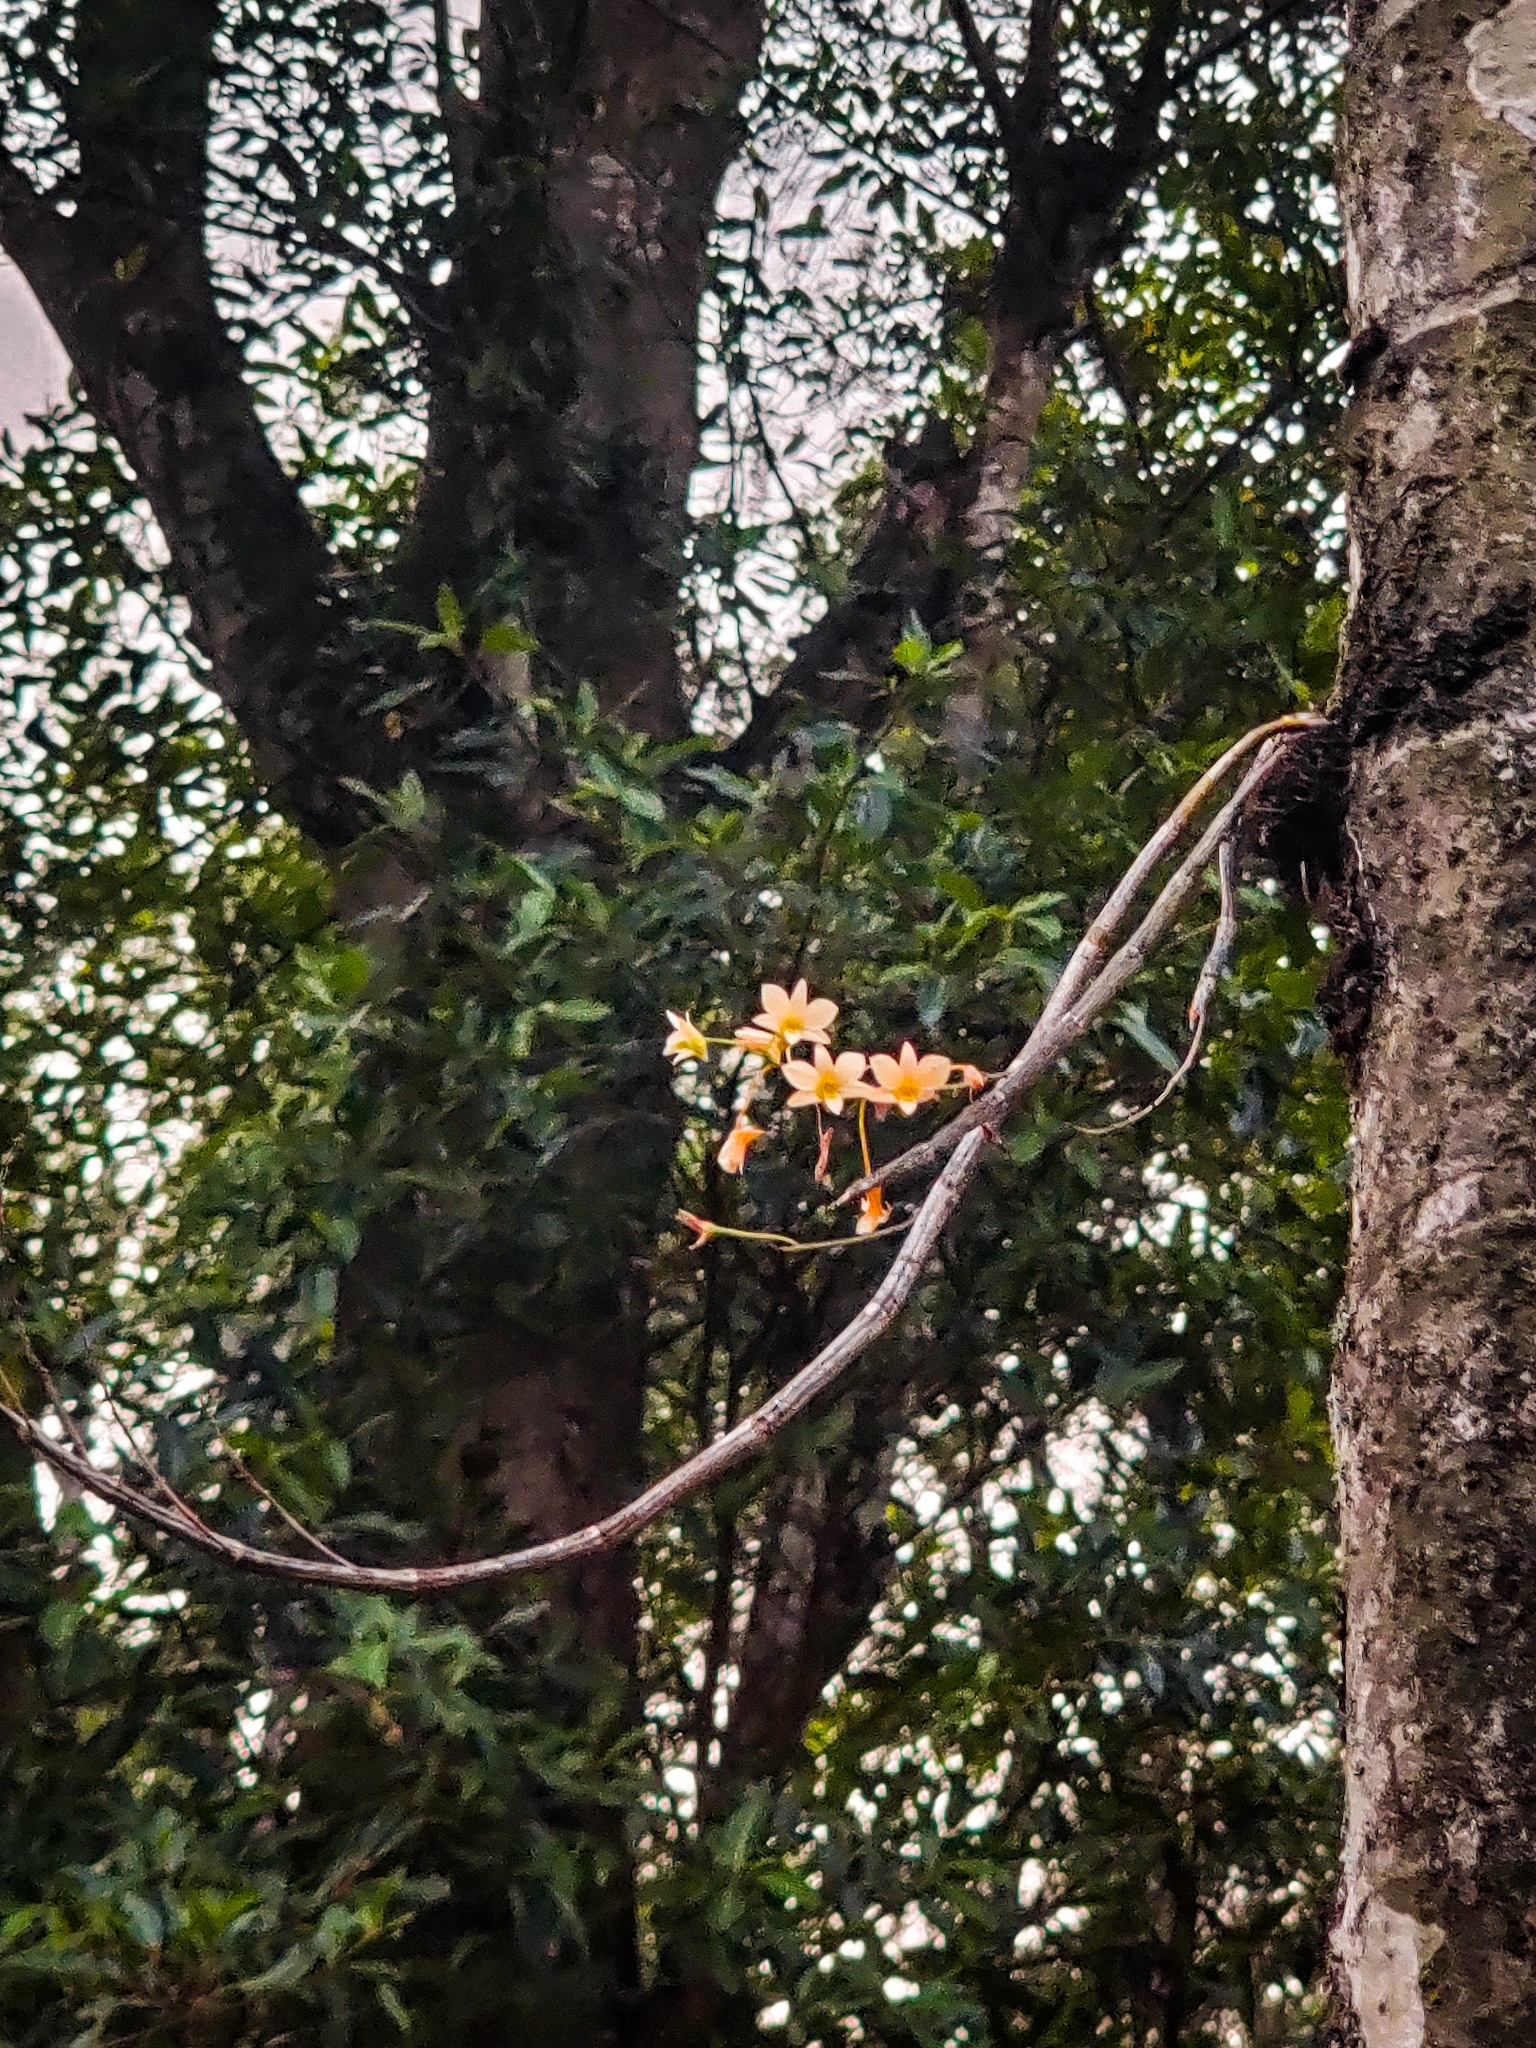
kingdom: Plantae
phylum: Tracheophyta
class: Liliopsida
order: Asparagales
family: Orchidaceae
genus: Dendrobium
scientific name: Dendrobium ovatum
